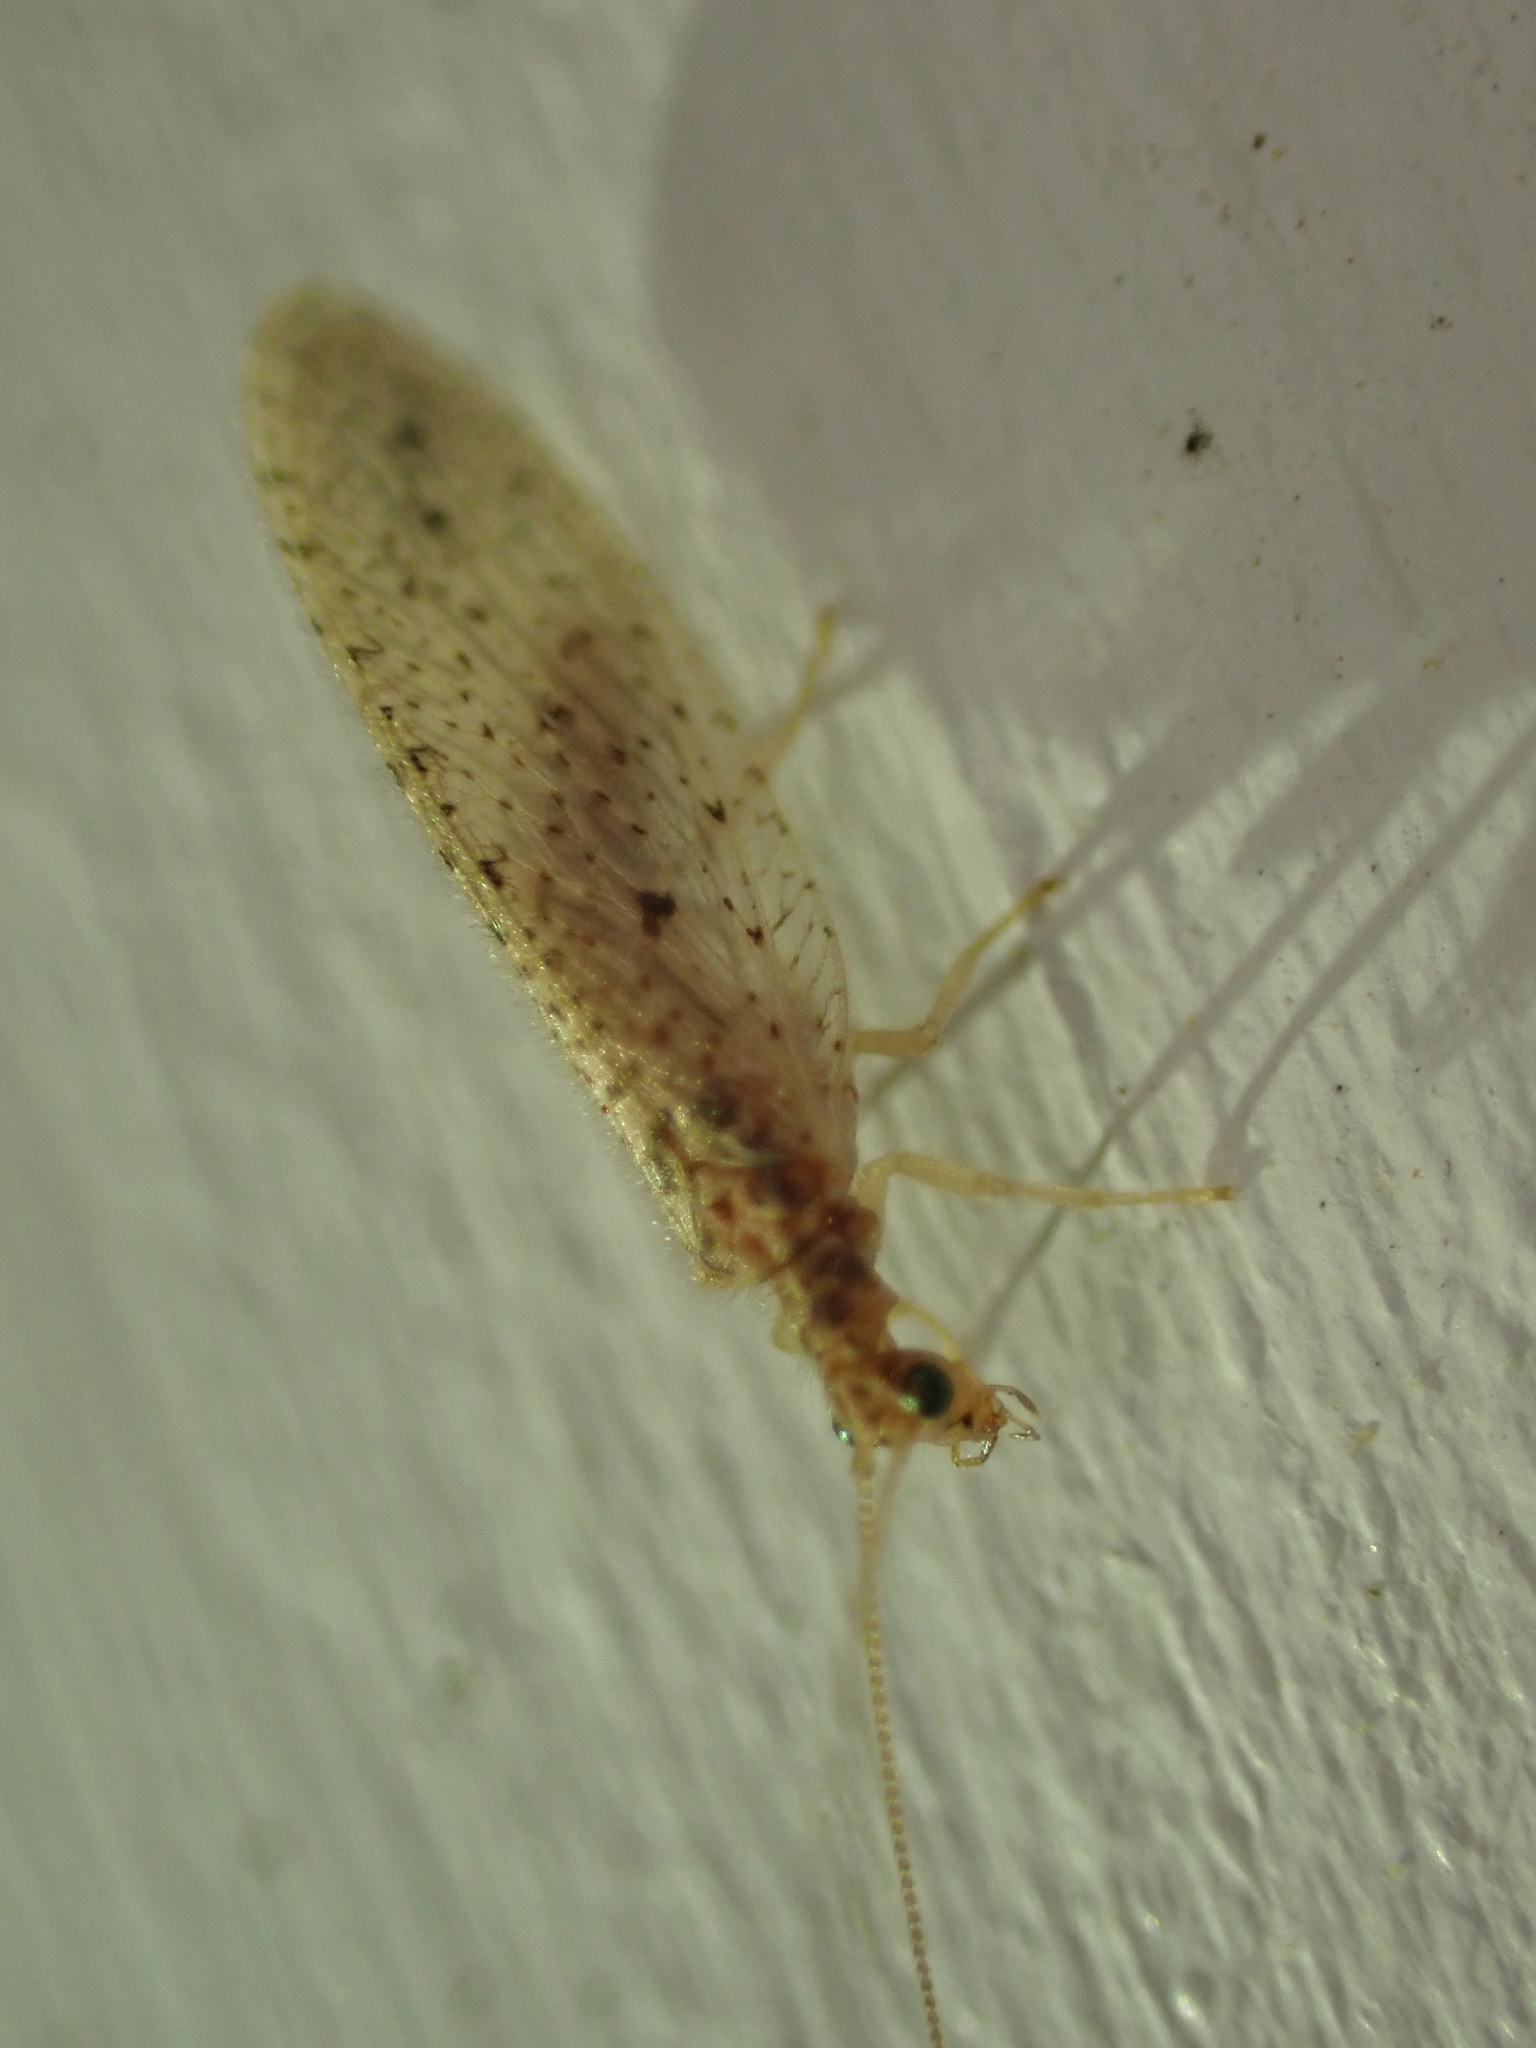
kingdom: Animalia
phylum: Arthropoda
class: Insecta
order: Neuroptera
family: Hemerobiidae
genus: Micromus
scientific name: Micromus subanticus
